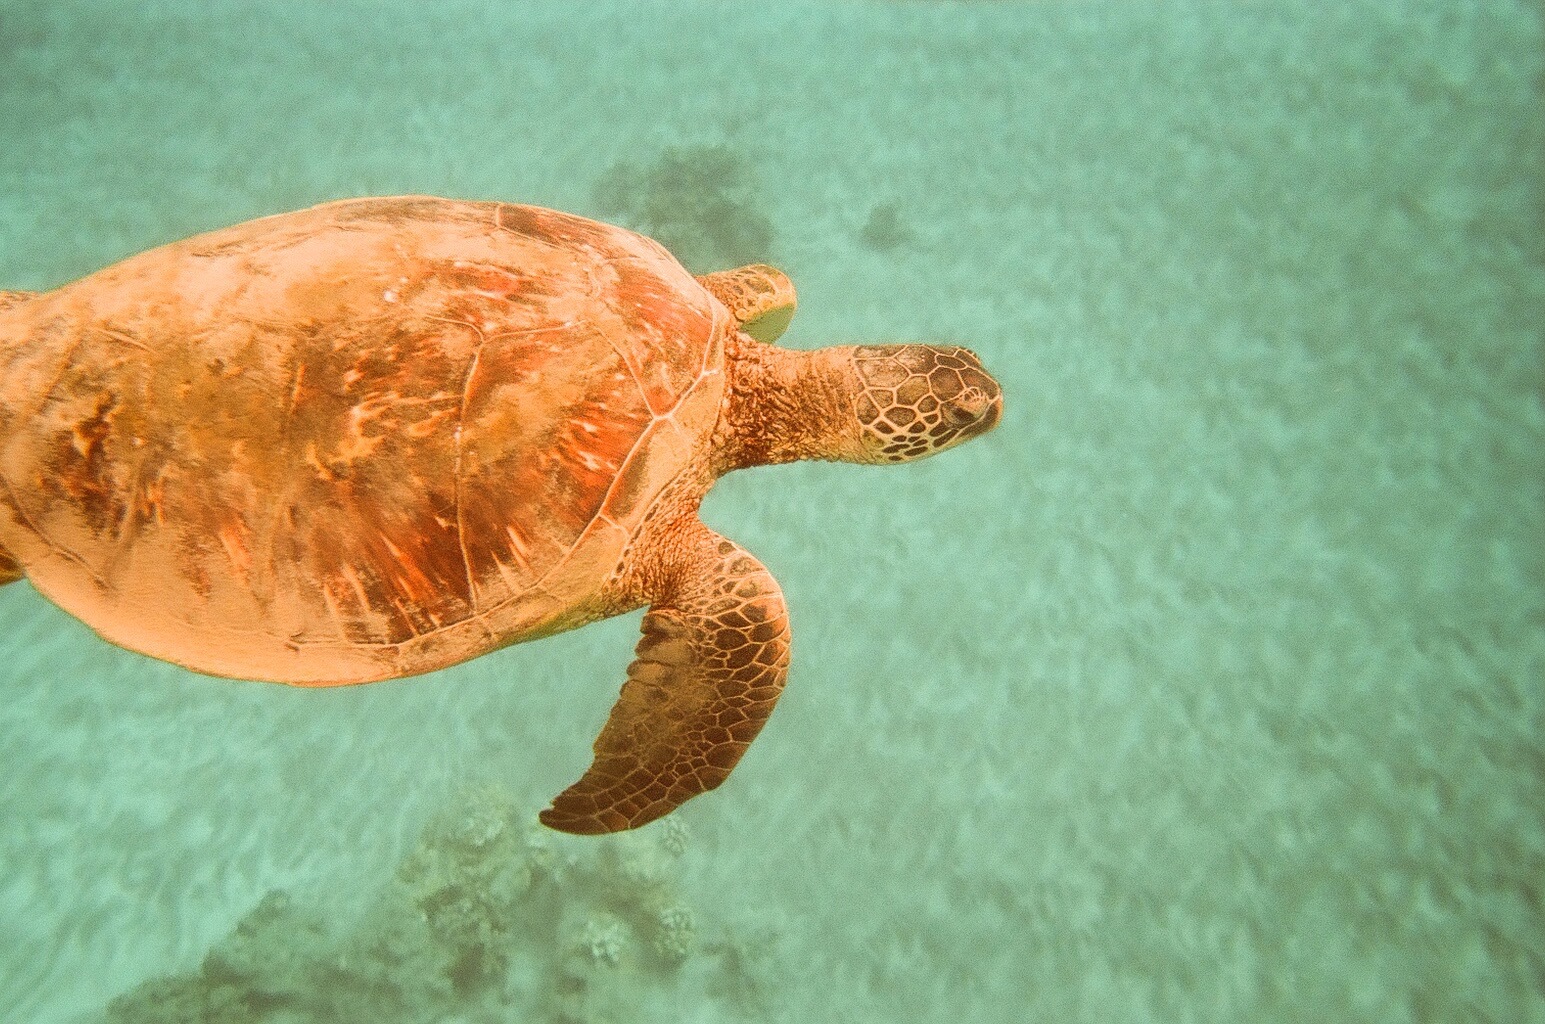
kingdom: Animalia
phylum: Chordata
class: Testudines
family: Cheloniidae
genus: Chelonia
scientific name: Chelonia mydas
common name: Green turtle
